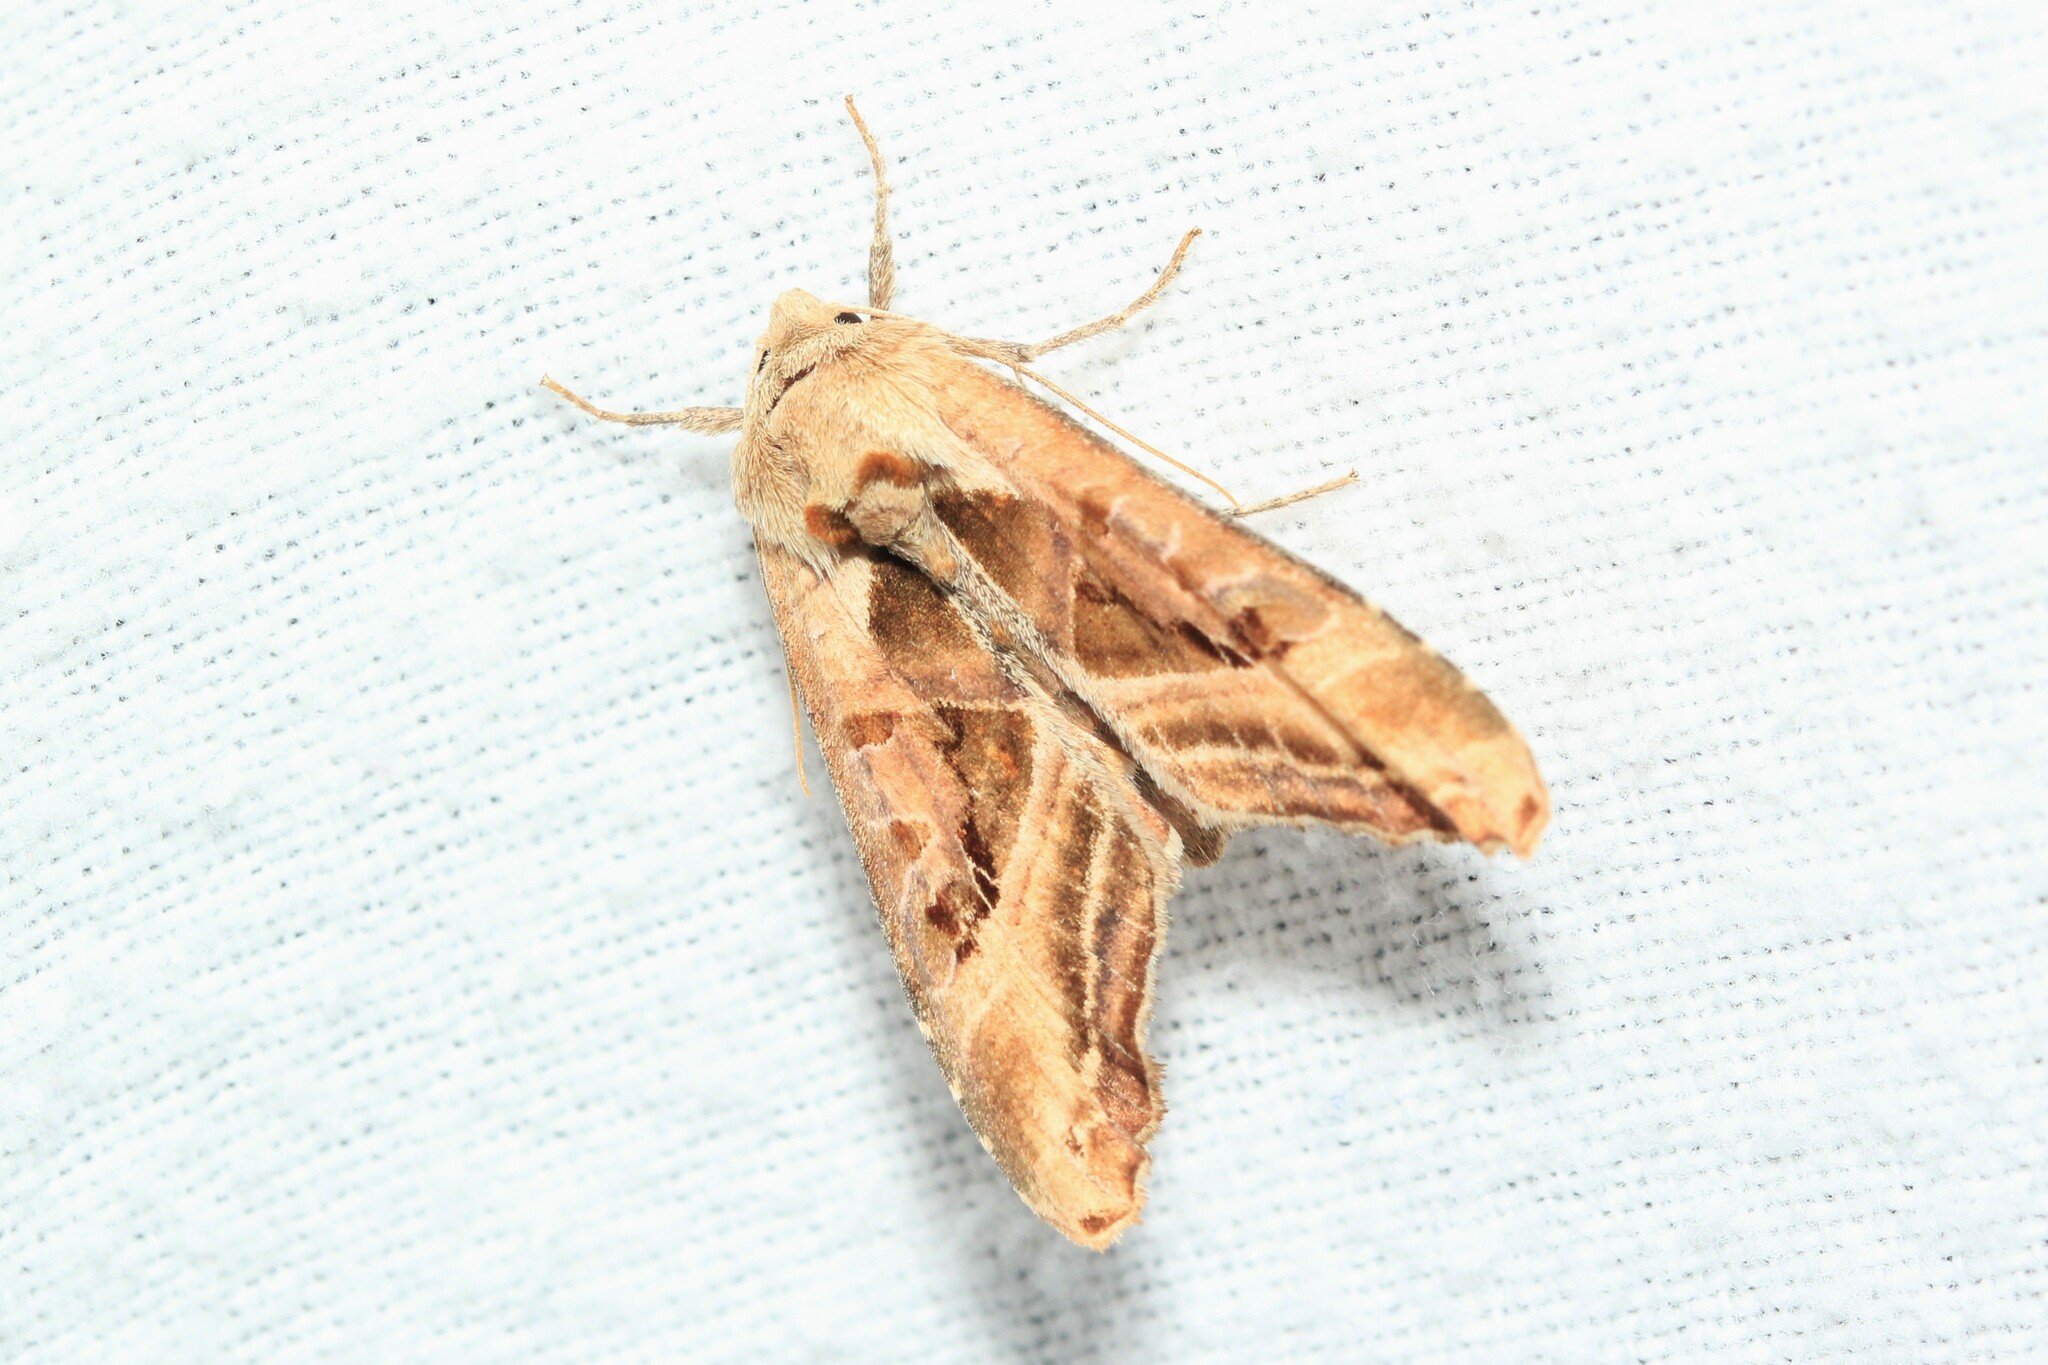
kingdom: Animalia
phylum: Arthropoda
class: Insecta
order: Lepidoptera
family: Noctuidae
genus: Phlogophora
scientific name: Phlogophora iris
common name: Olive angle shades
